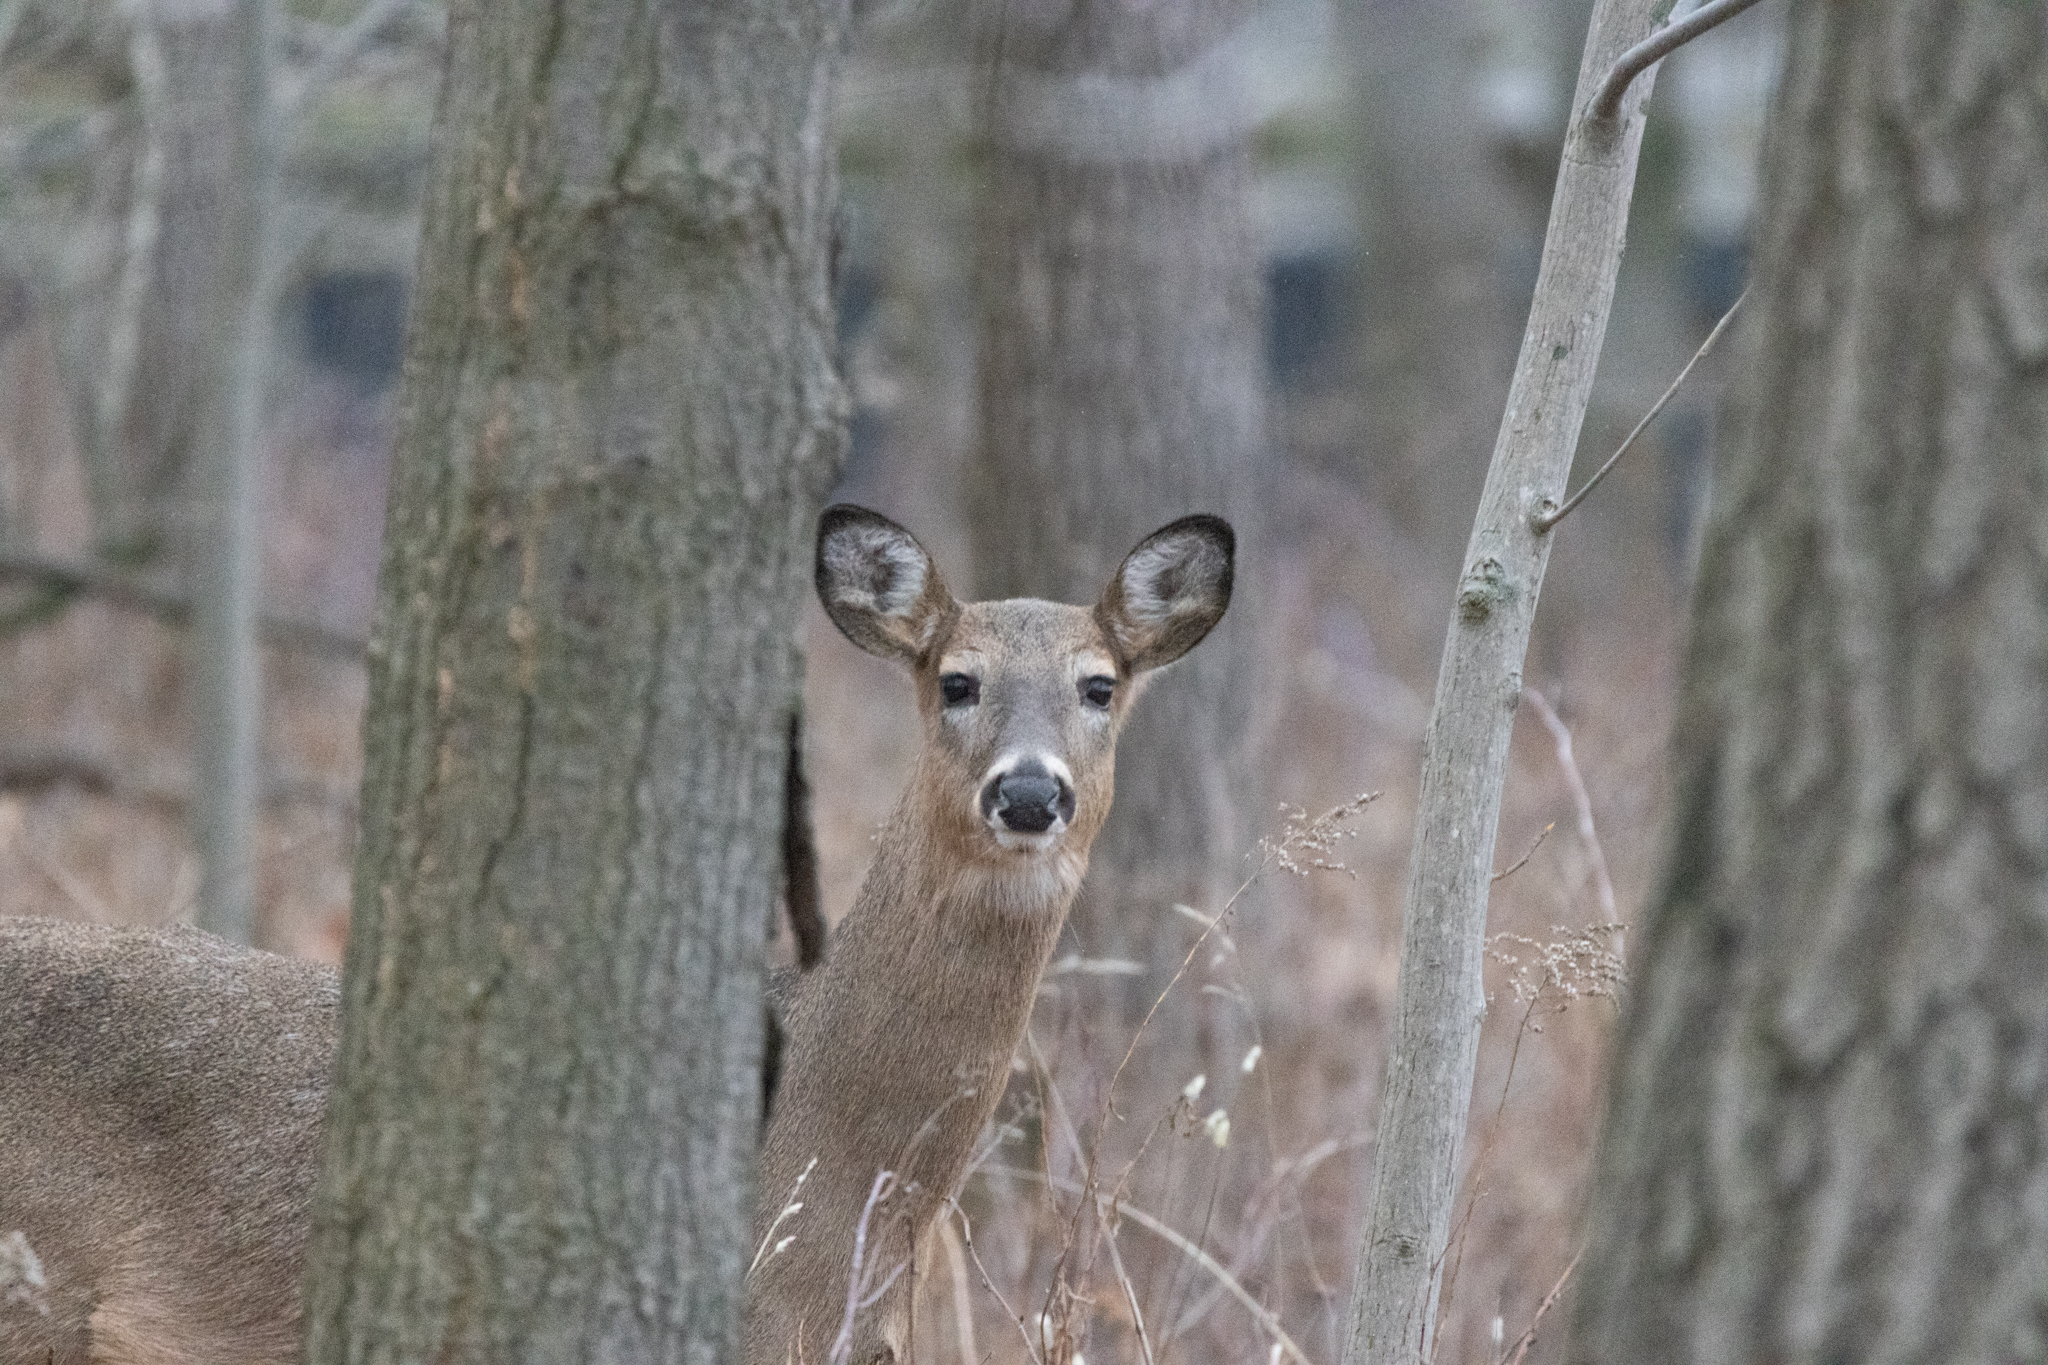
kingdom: Animalia
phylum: Chordata
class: Mammalia
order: Artiodactyla
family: Cervidae
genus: Odocoileus
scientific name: Odocoileus virginianus
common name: White-tailed deer
